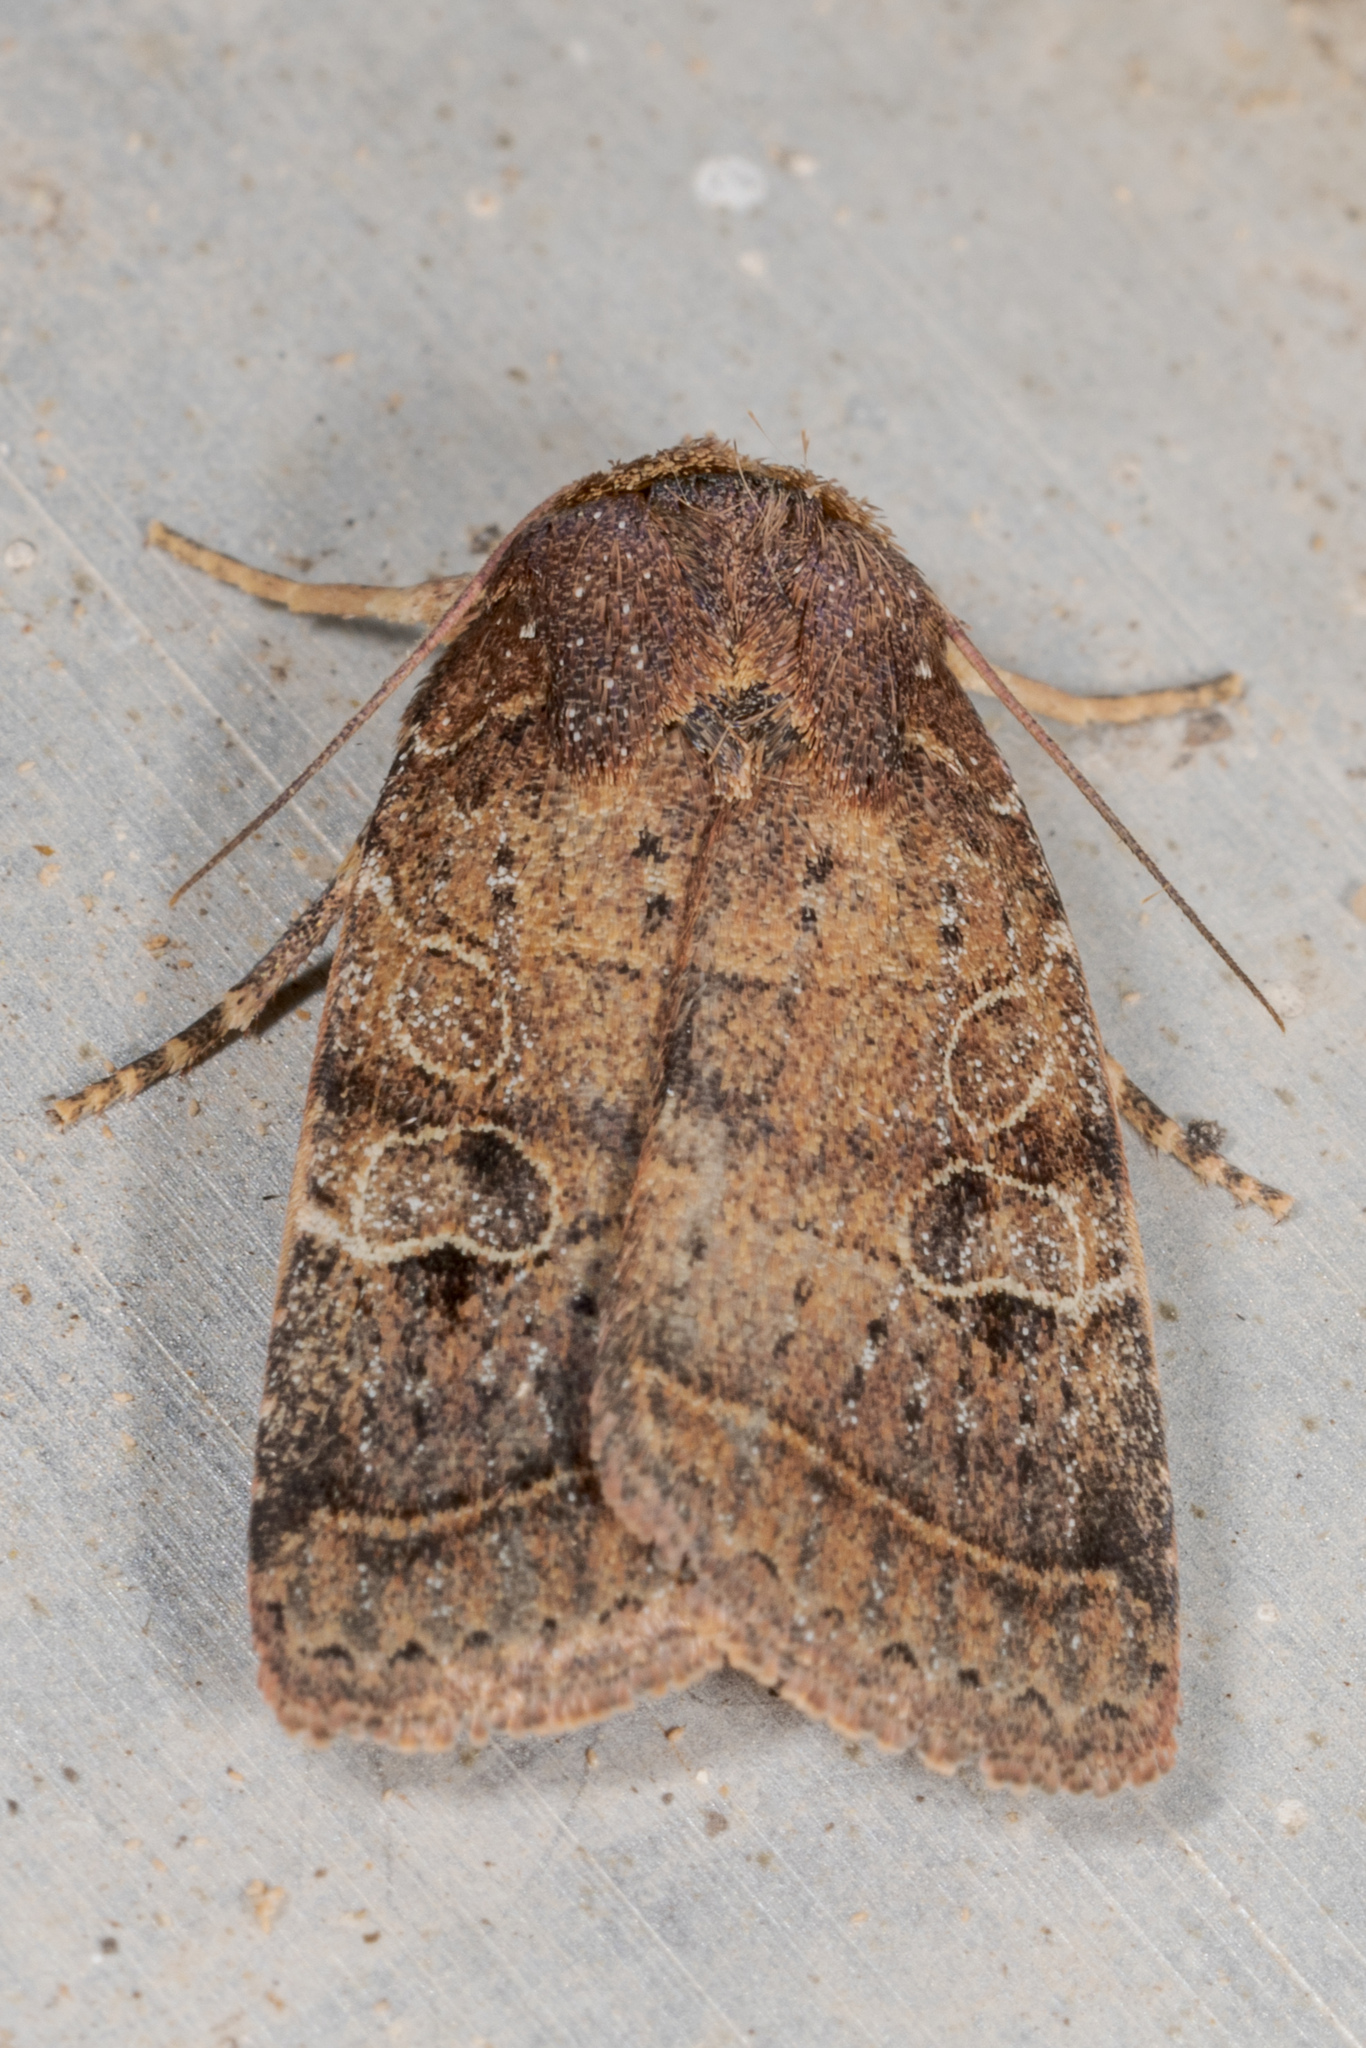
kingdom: Animalia
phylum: Arthropoda
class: Insecta
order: Lepidoptera
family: Noctuidae
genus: Orthodes
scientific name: Orthodes furtiva
